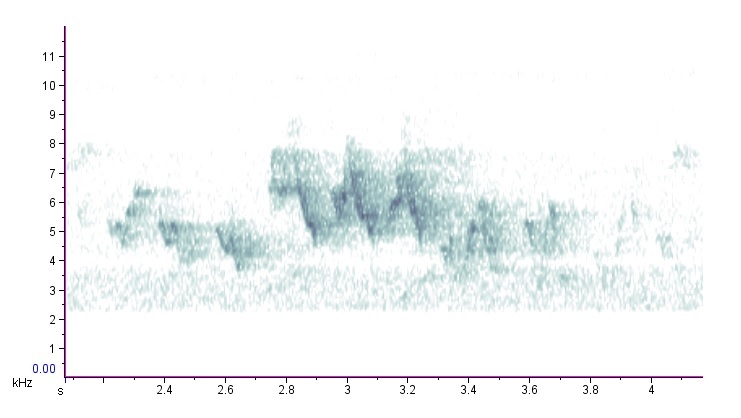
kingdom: Animalia
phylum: Chordata
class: Aves
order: Passeriformes
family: Parulidae
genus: Setophaga
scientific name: Setophaga pensylvanica
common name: Chestnut-sided warbler
